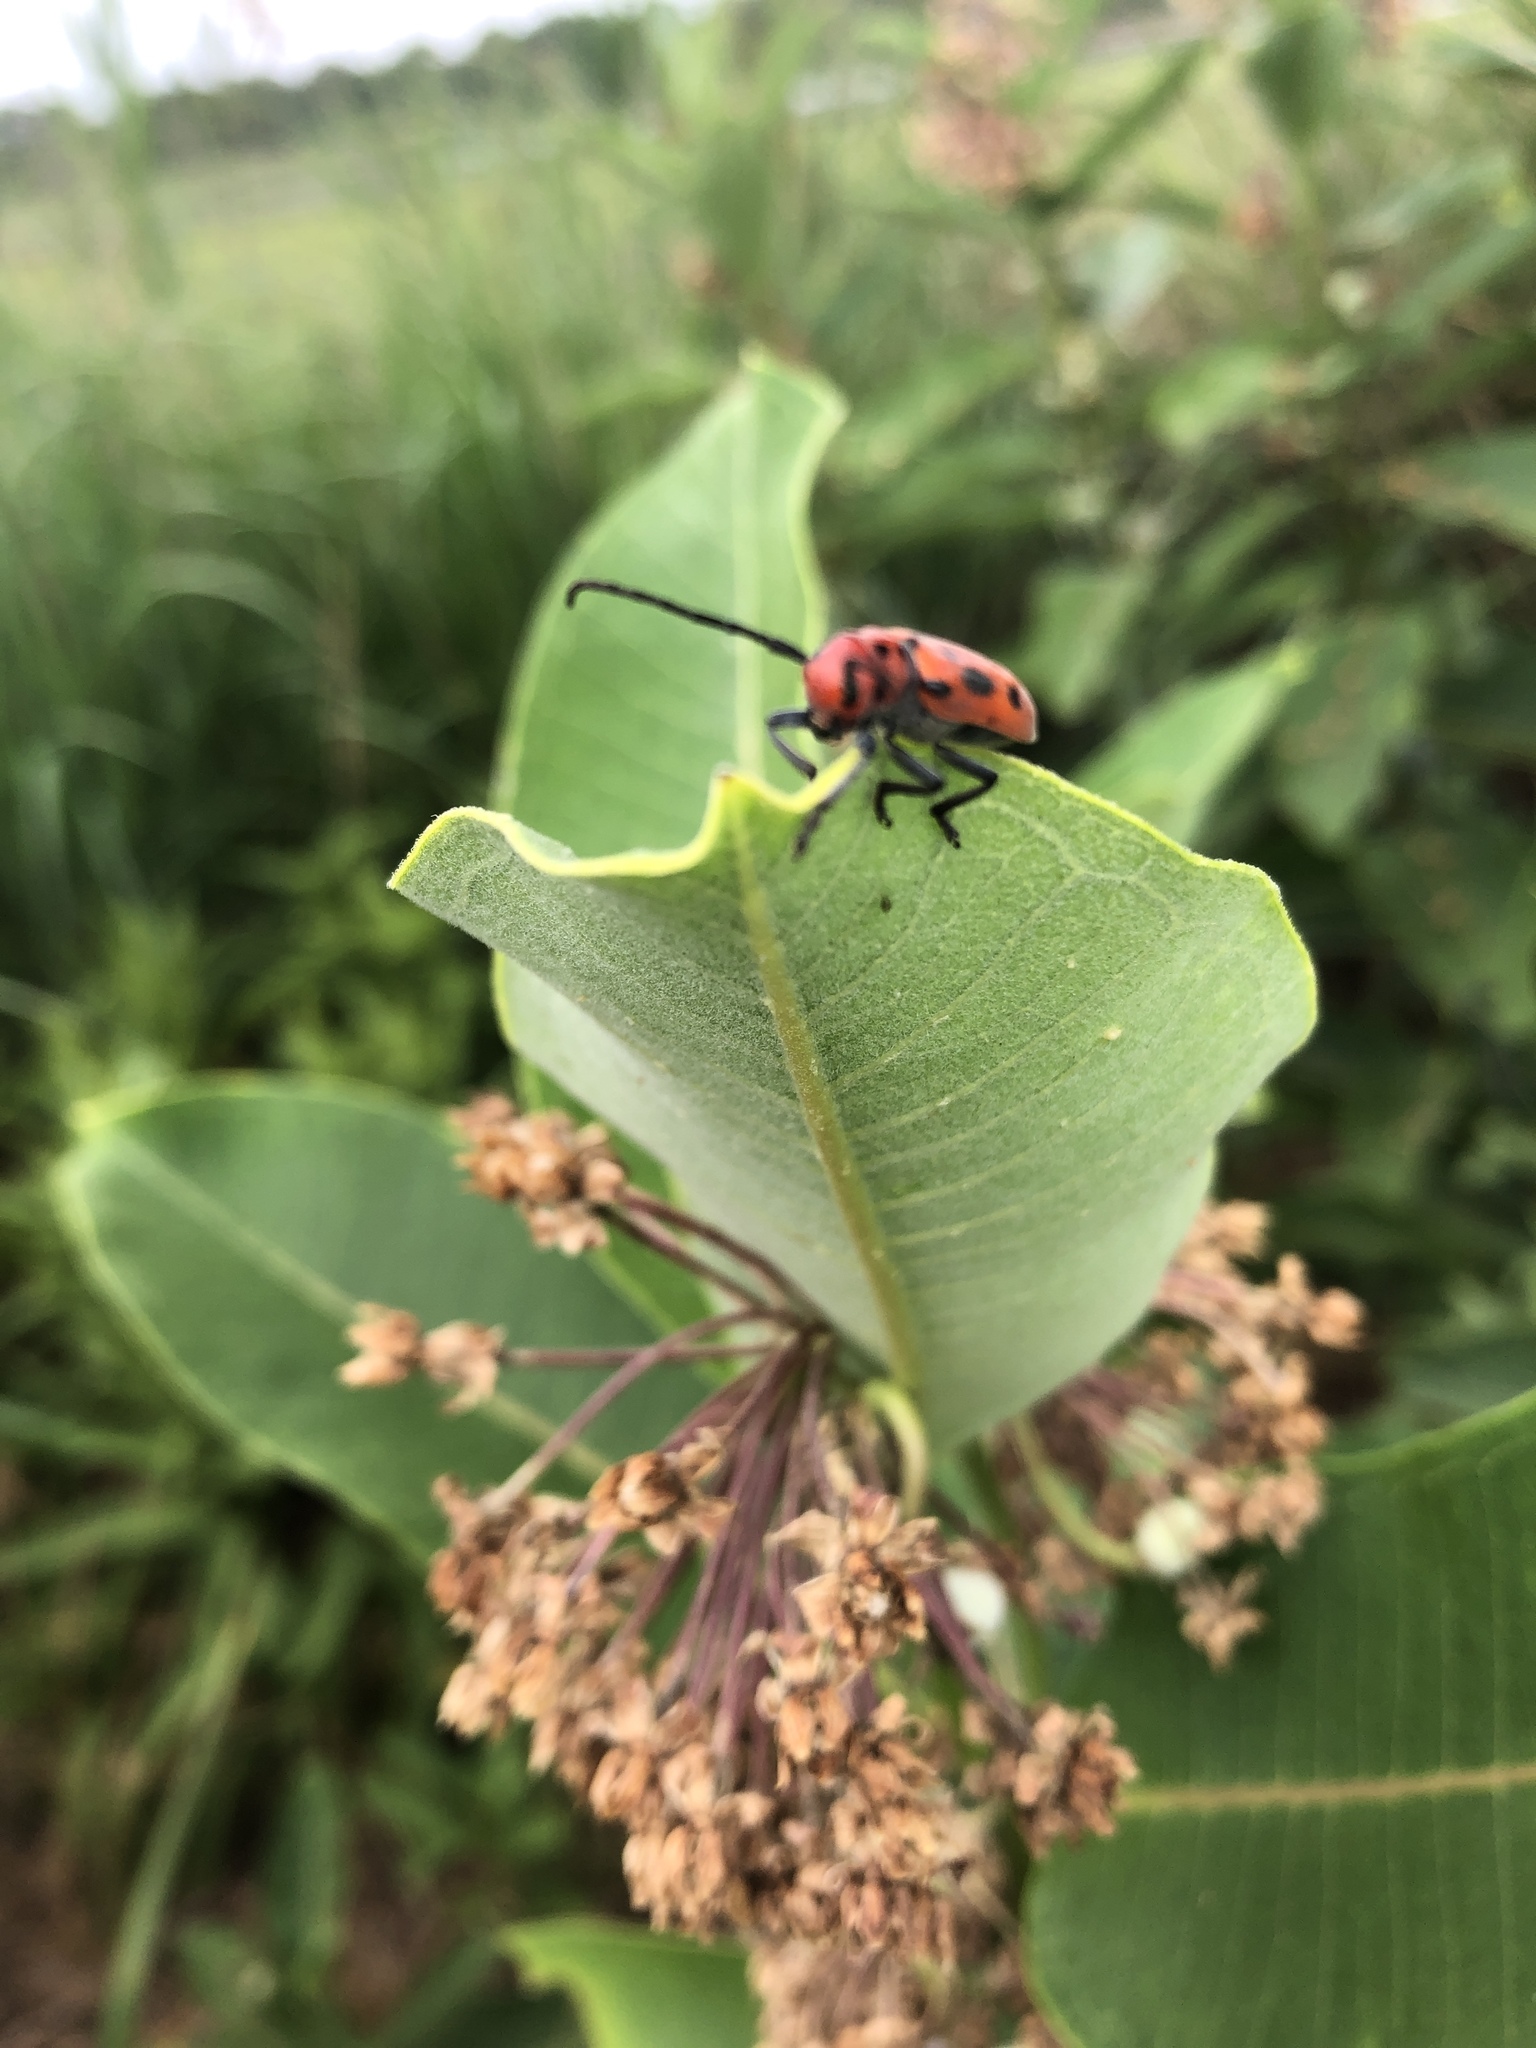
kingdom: Animalia
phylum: Arthropoda
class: Insecta
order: Coleoptera
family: Cerambycidae
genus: Tetraopes
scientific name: Tetraopes tetrophthalmus
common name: Red milkweed beetle
